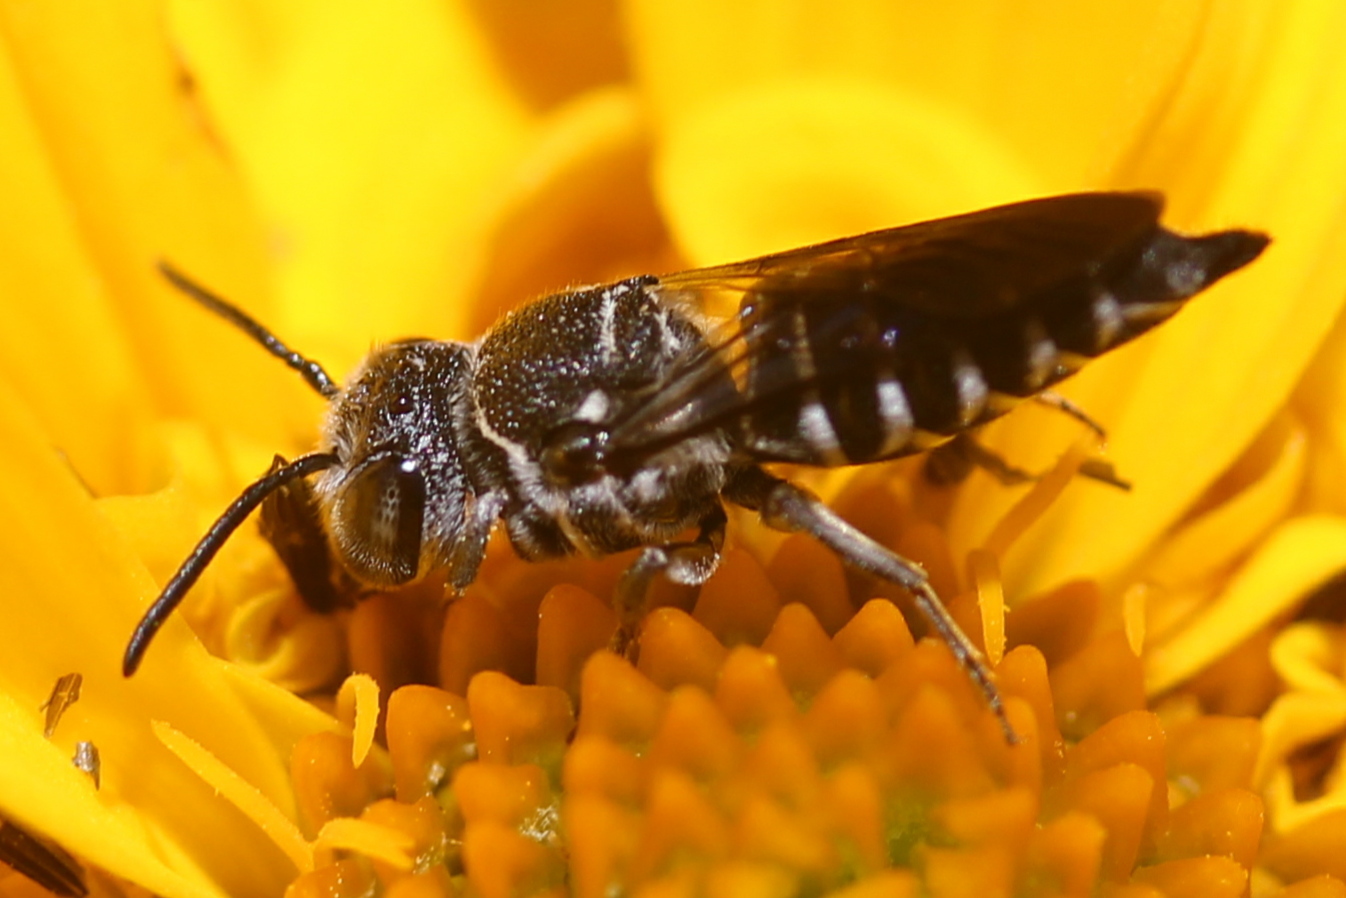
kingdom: Animalia
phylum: Arthropoda
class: Insecta
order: Hymenoptera
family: Megachilidae
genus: Coelioxys
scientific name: Coelioxys modestus
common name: Modest sharptail
